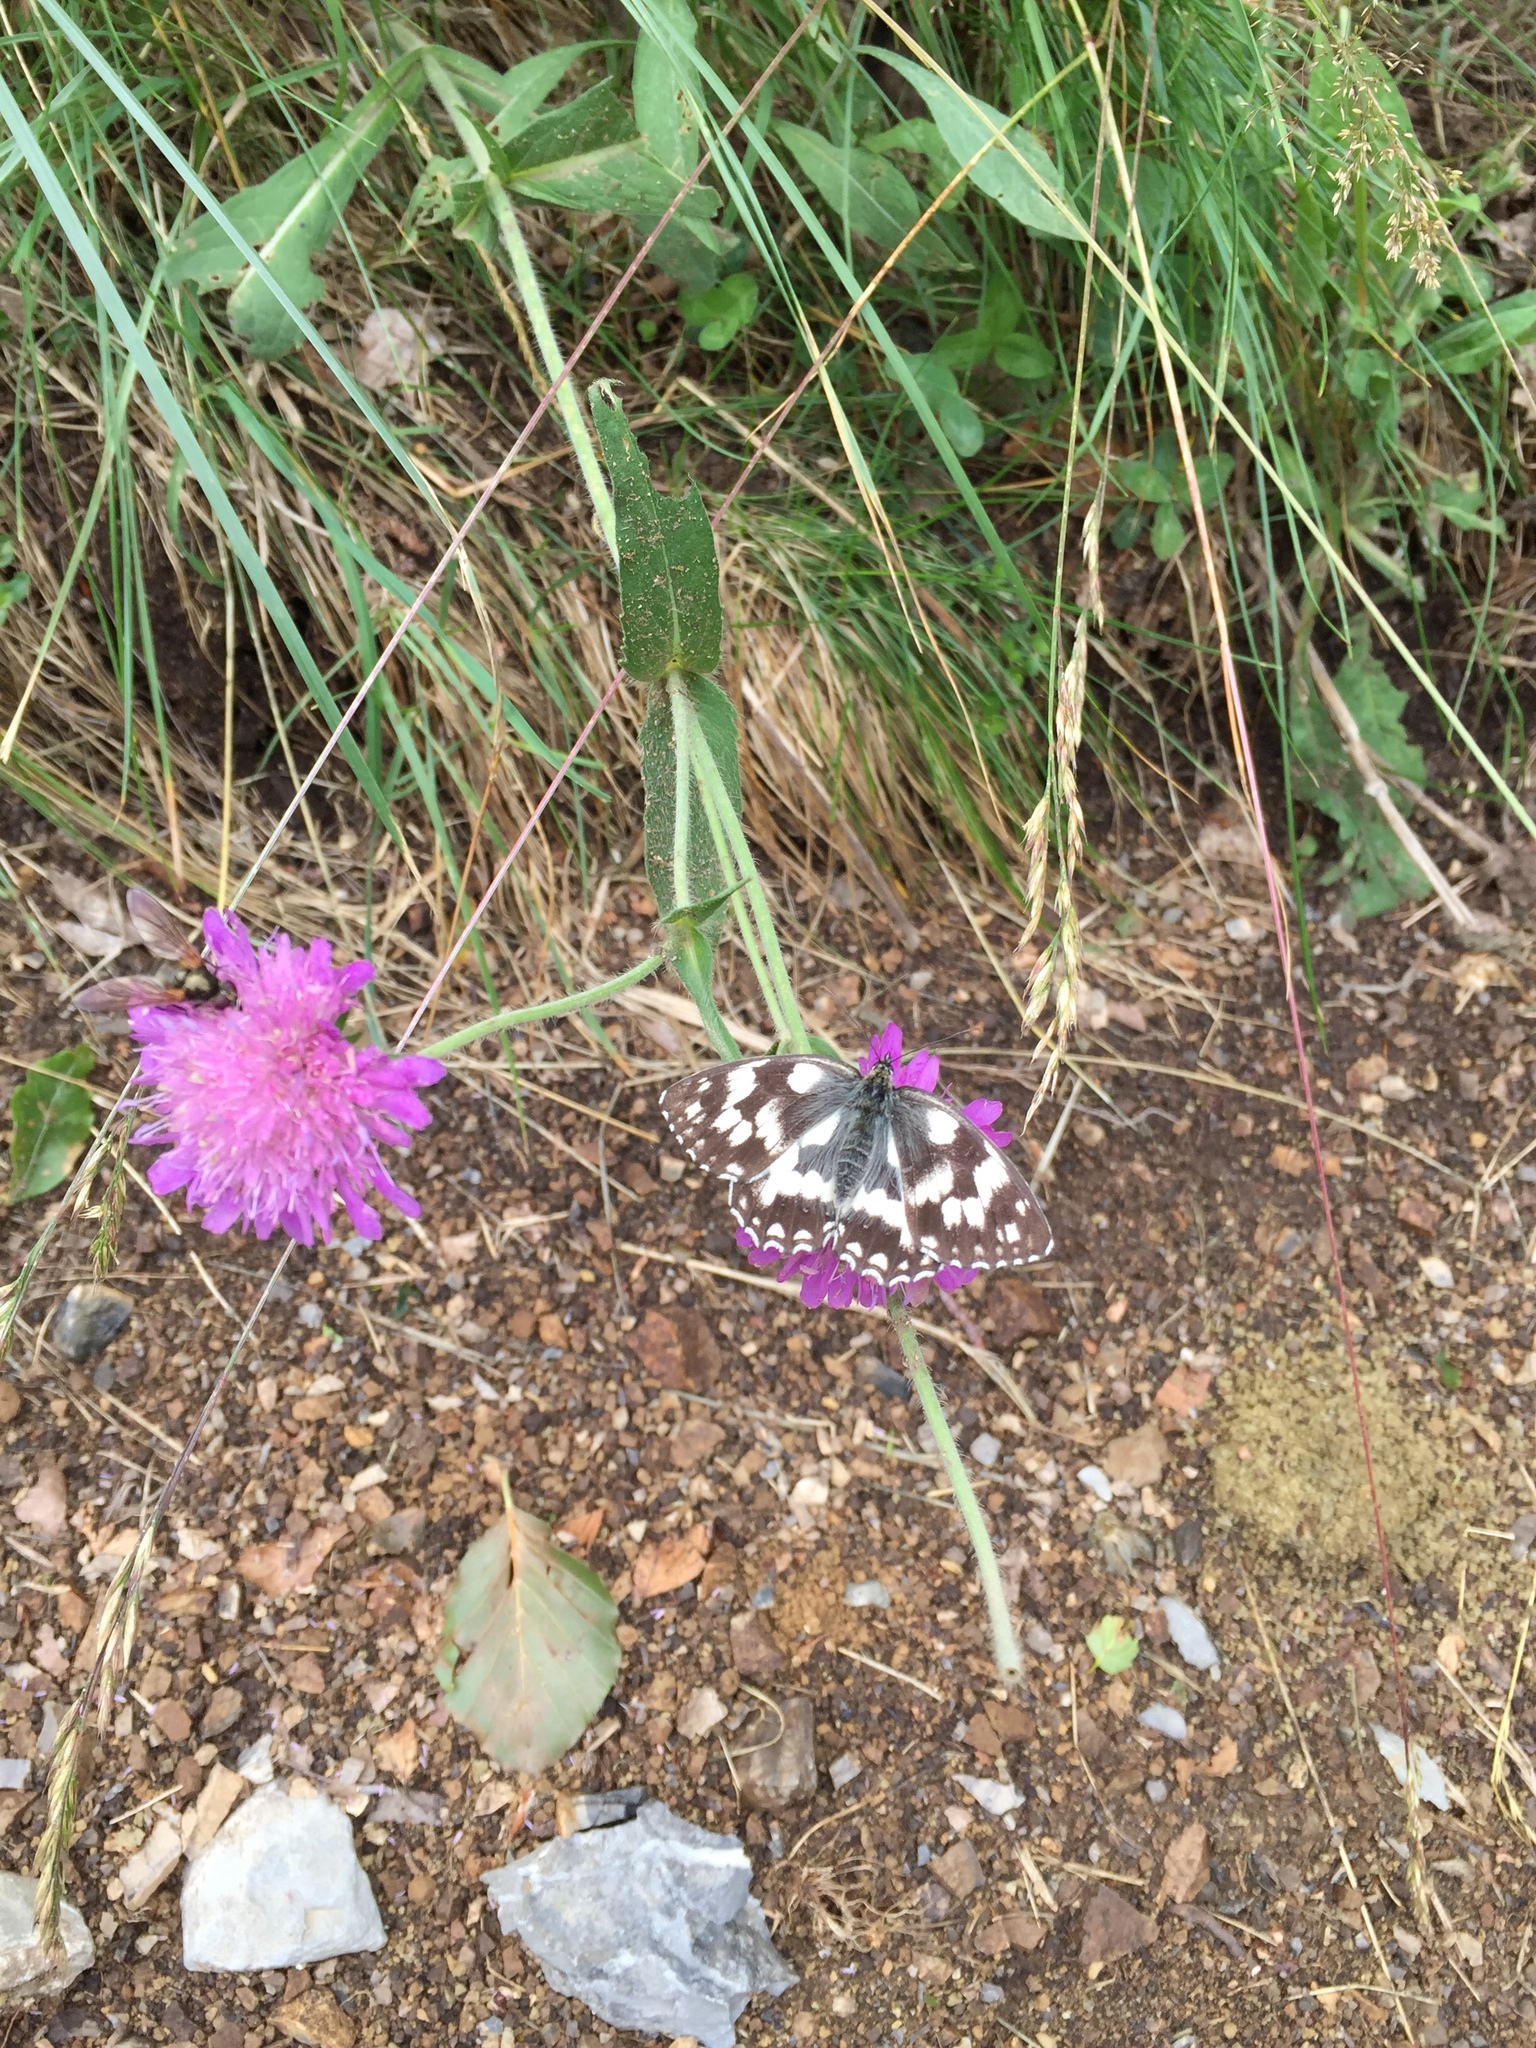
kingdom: Animalia
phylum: Arthropoda
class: Insecta
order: Lepidoptera
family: Nymphalidae
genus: Melanargia
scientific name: Melanargia galathea
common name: Marbled white
